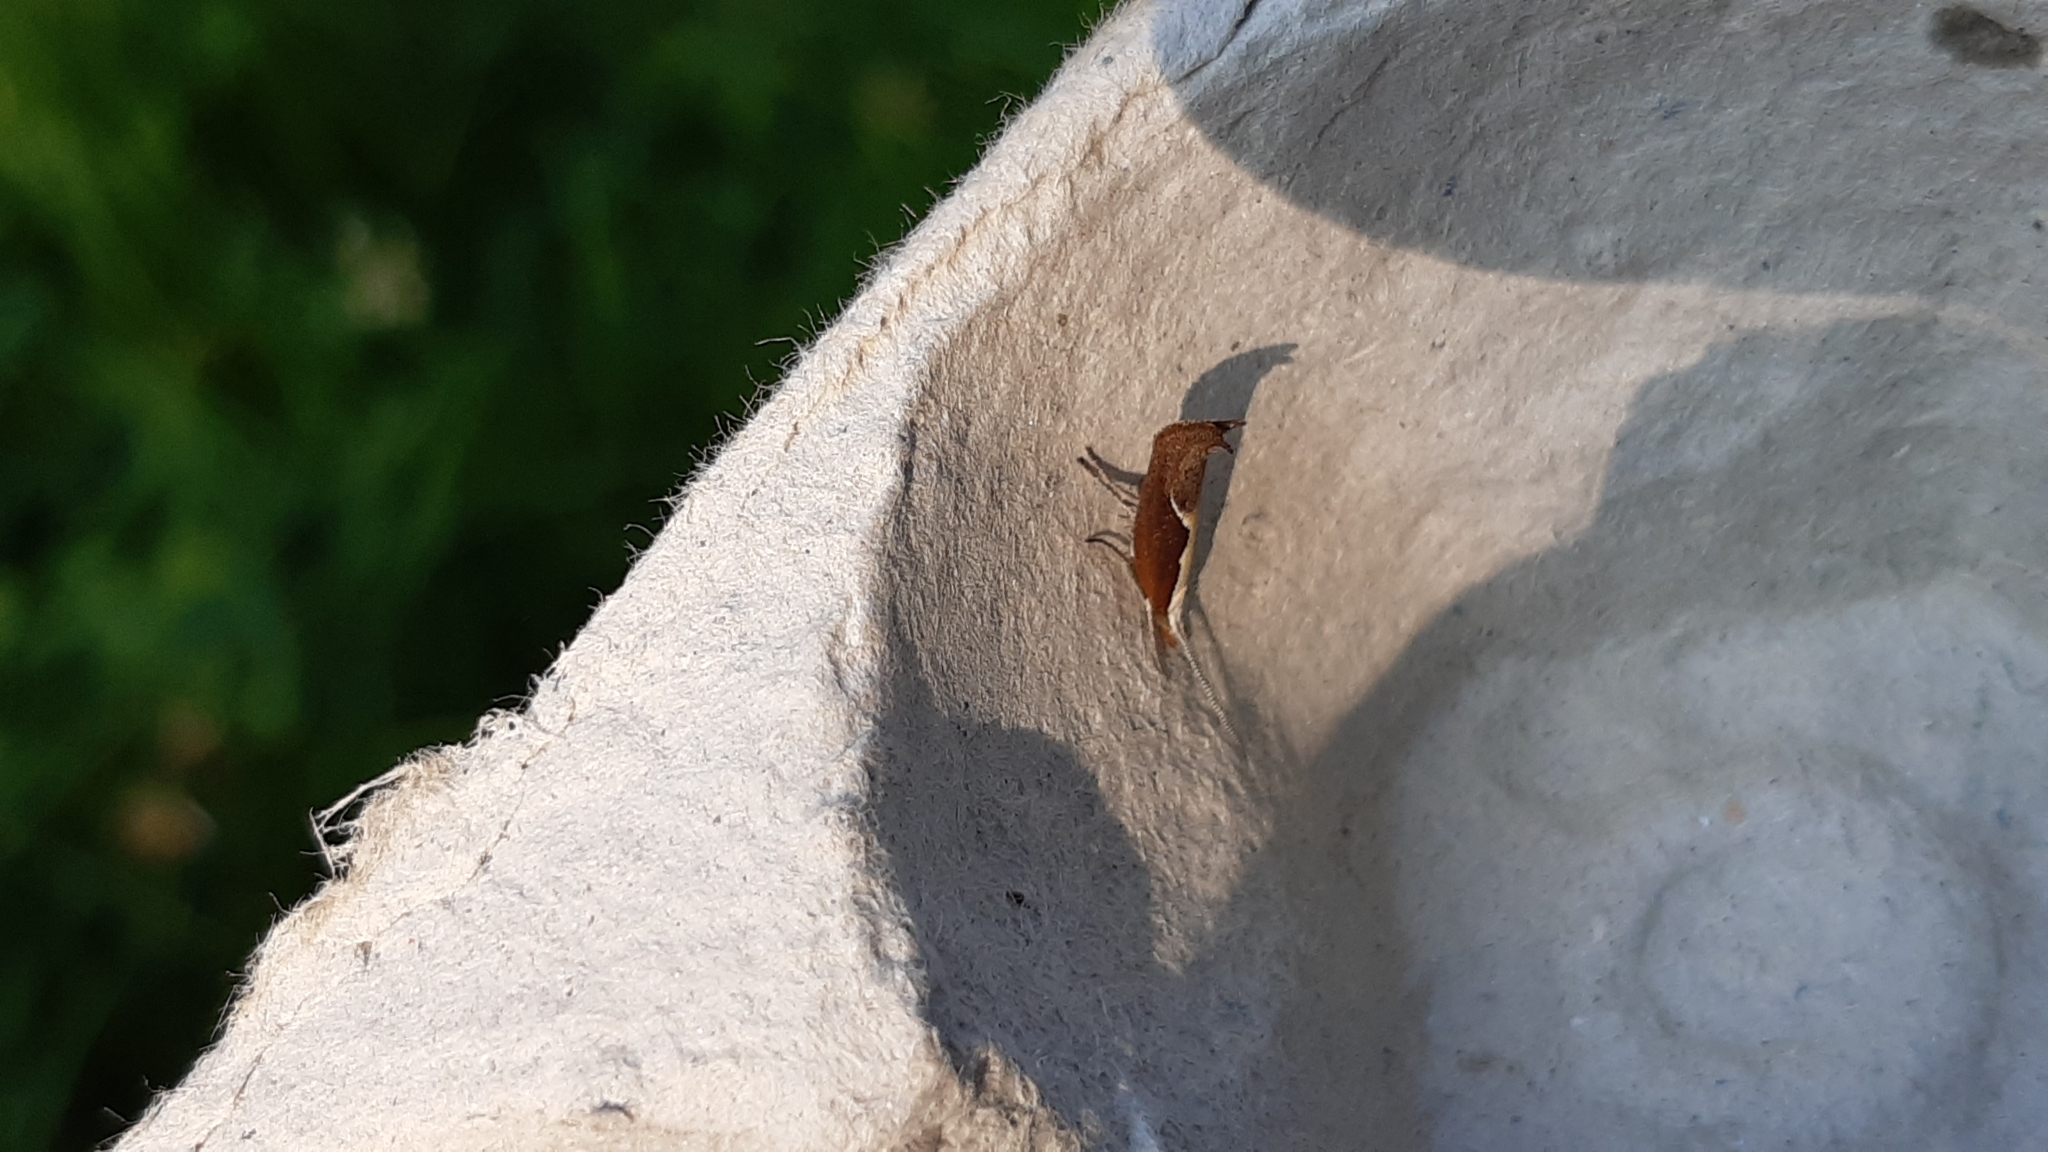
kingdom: Animalia
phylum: Arthropoda
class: Insecta
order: Lepidoptera
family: Ypsolophidae
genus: Ypsolopha
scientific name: Ypsolopha dentella
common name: Honeysuckle moth
